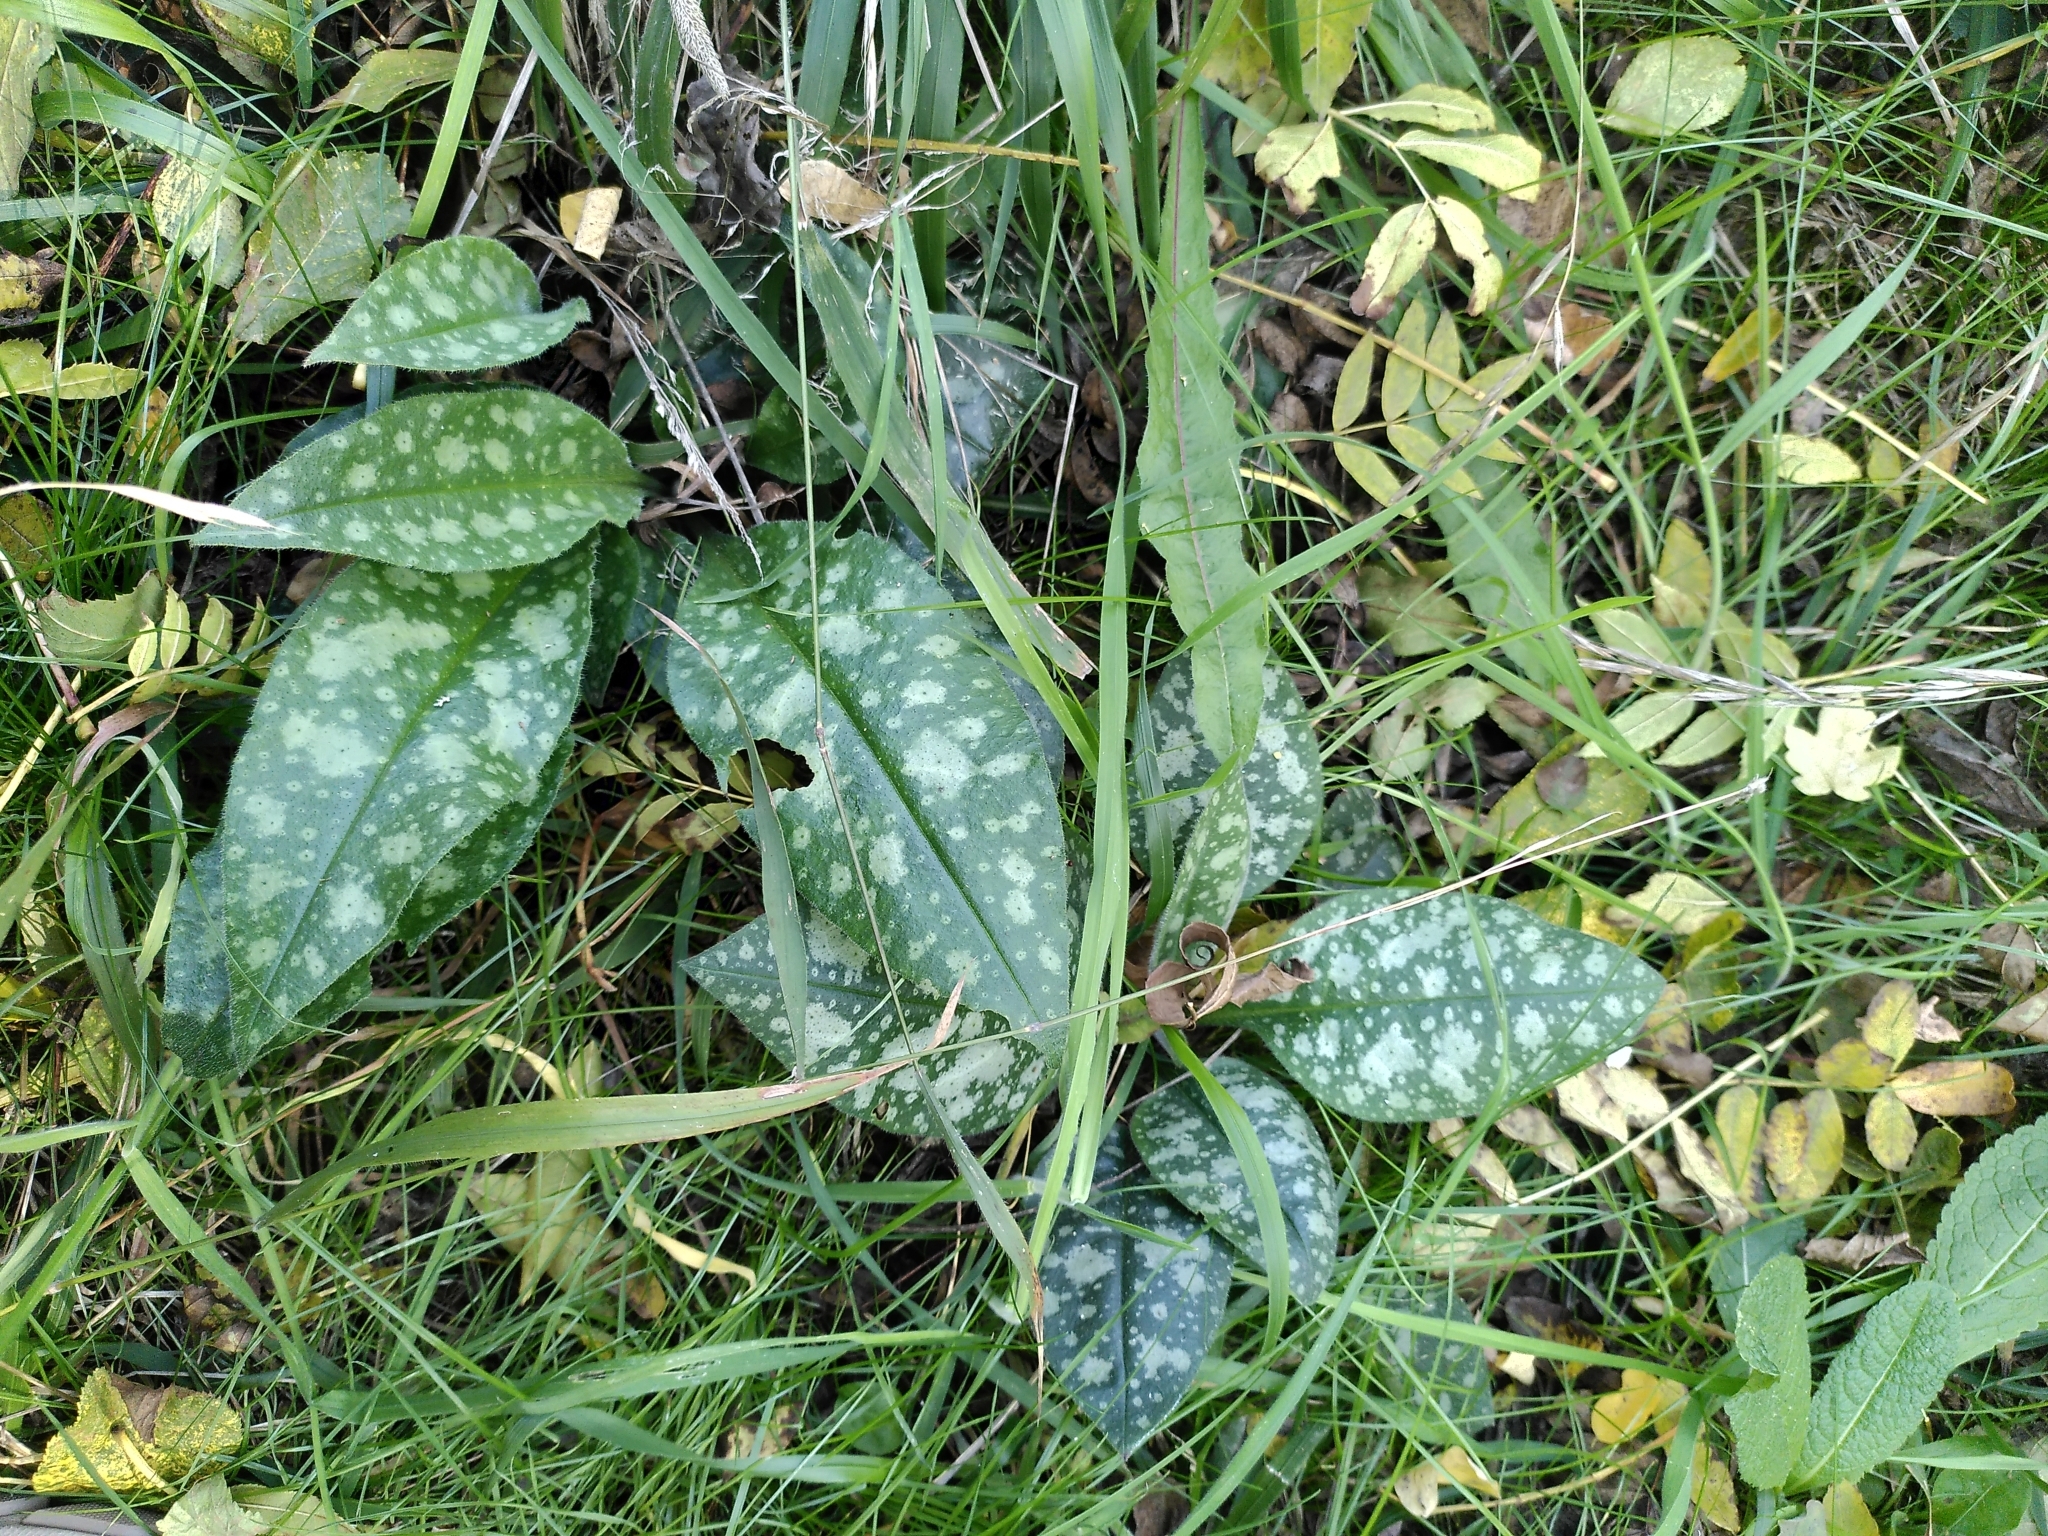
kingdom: Plantae
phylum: Tracheophyta
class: Magnoliopsida
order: Boraginales
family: Boraginaceae
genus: Pulmonaria
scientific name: Pulmonaria officinalis
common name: Lungwort
